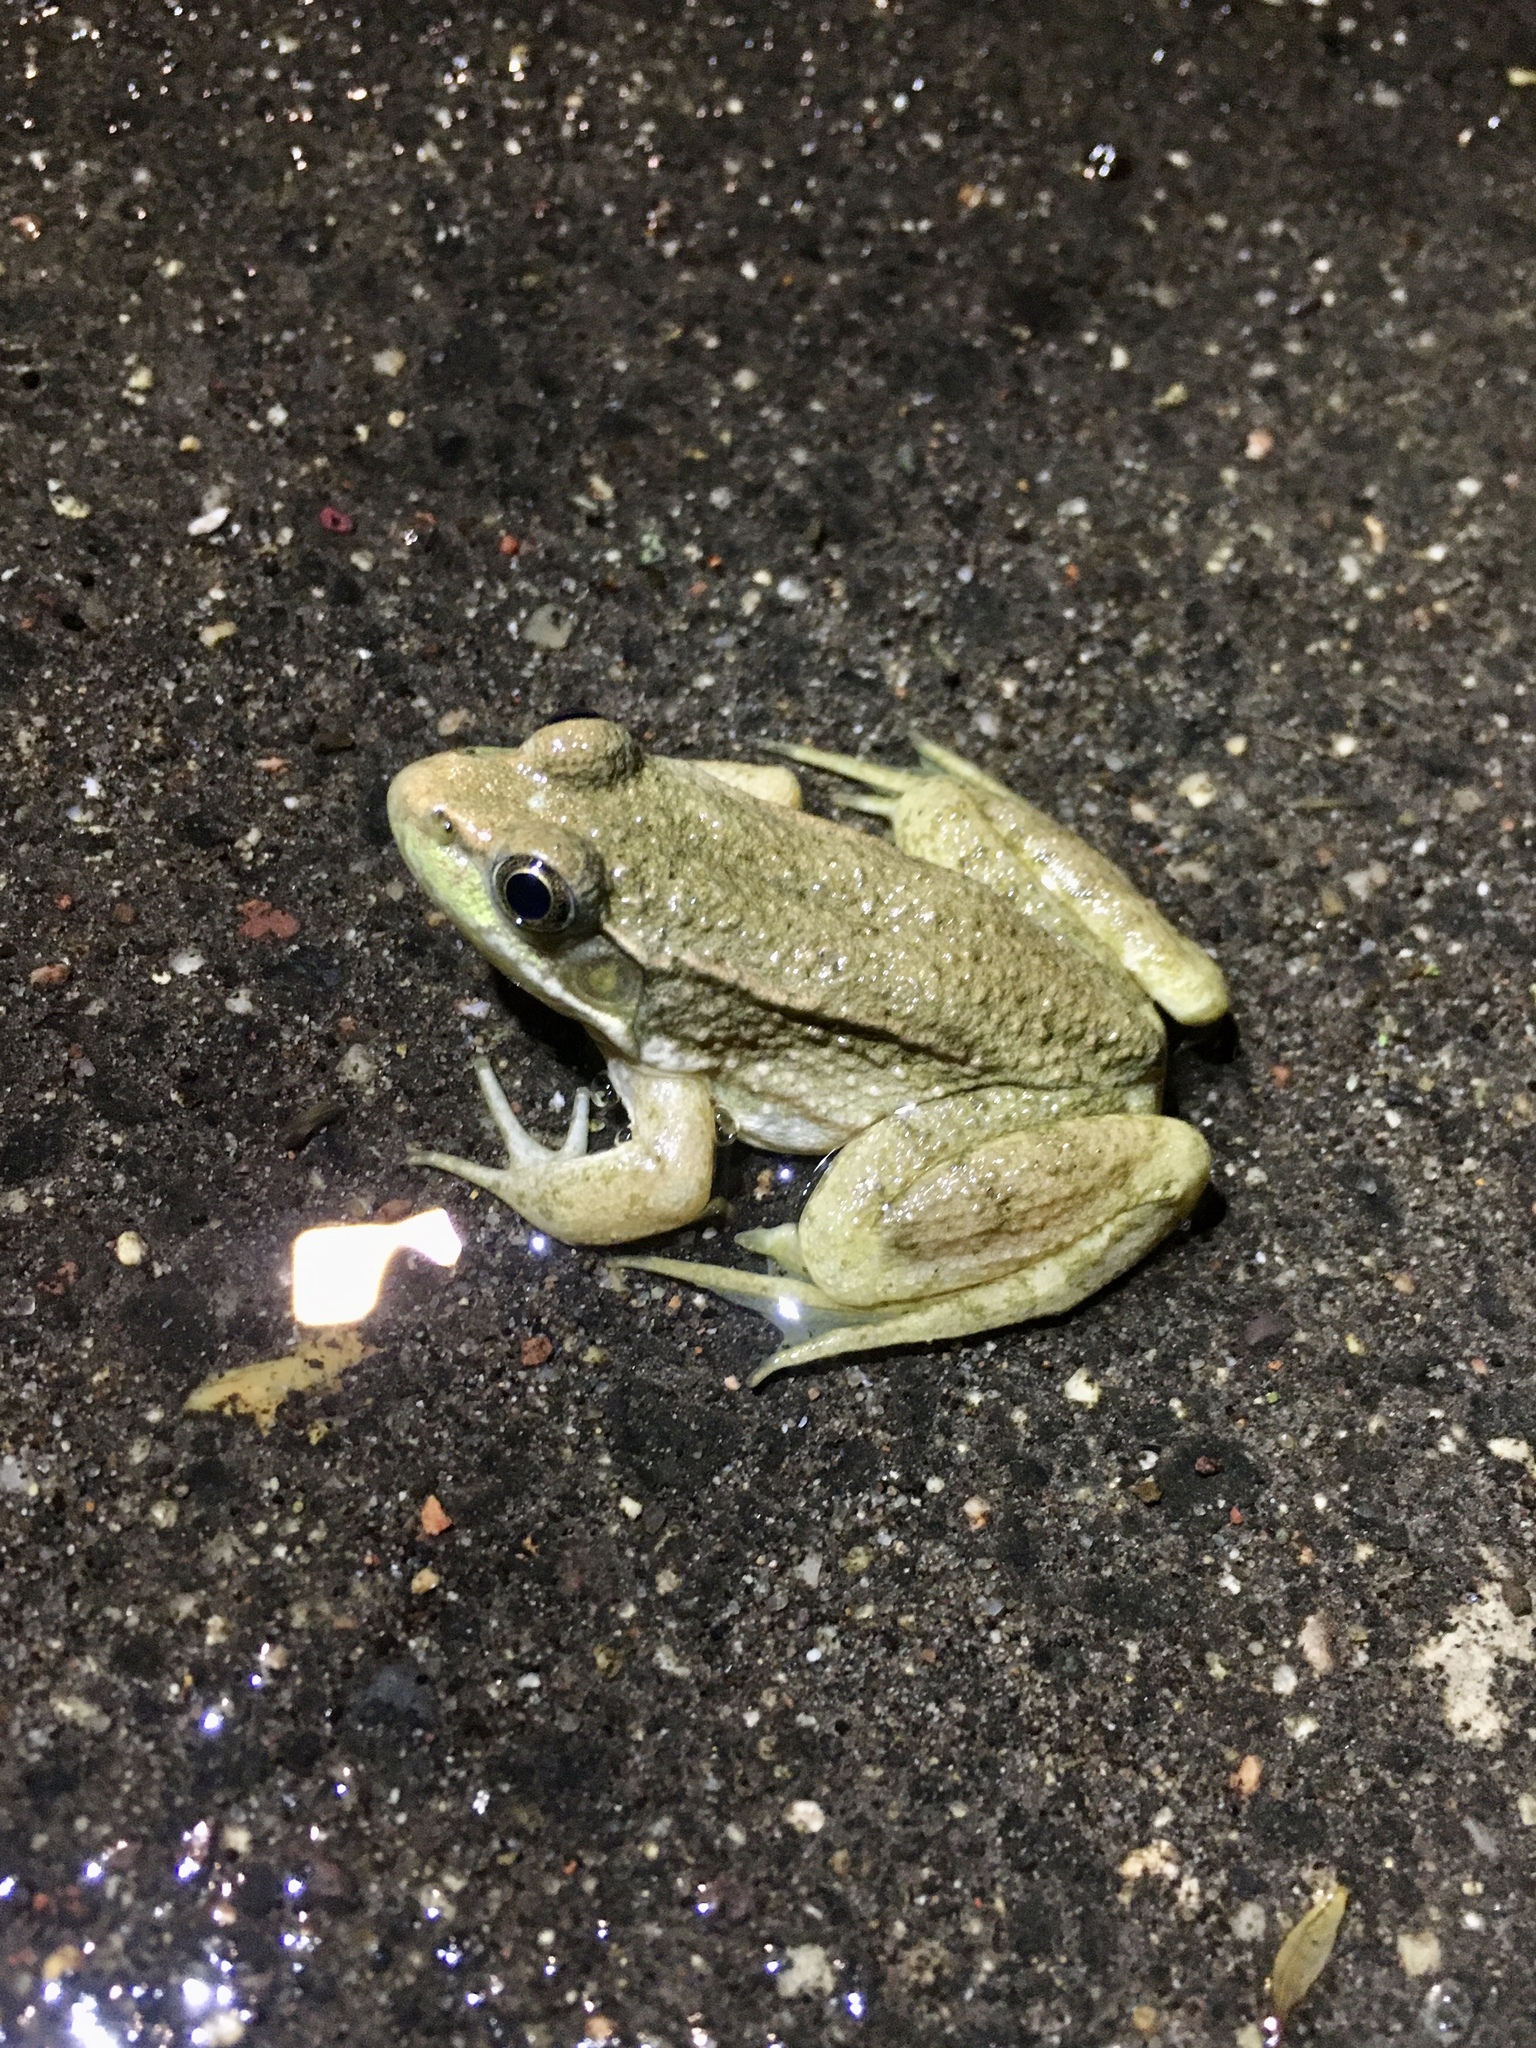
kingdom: Animalia
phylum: Chordata
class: Amphibia
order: Anura
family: Ranidae
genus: Lithobates
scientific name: Lithobates clamitans
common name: Green frog
